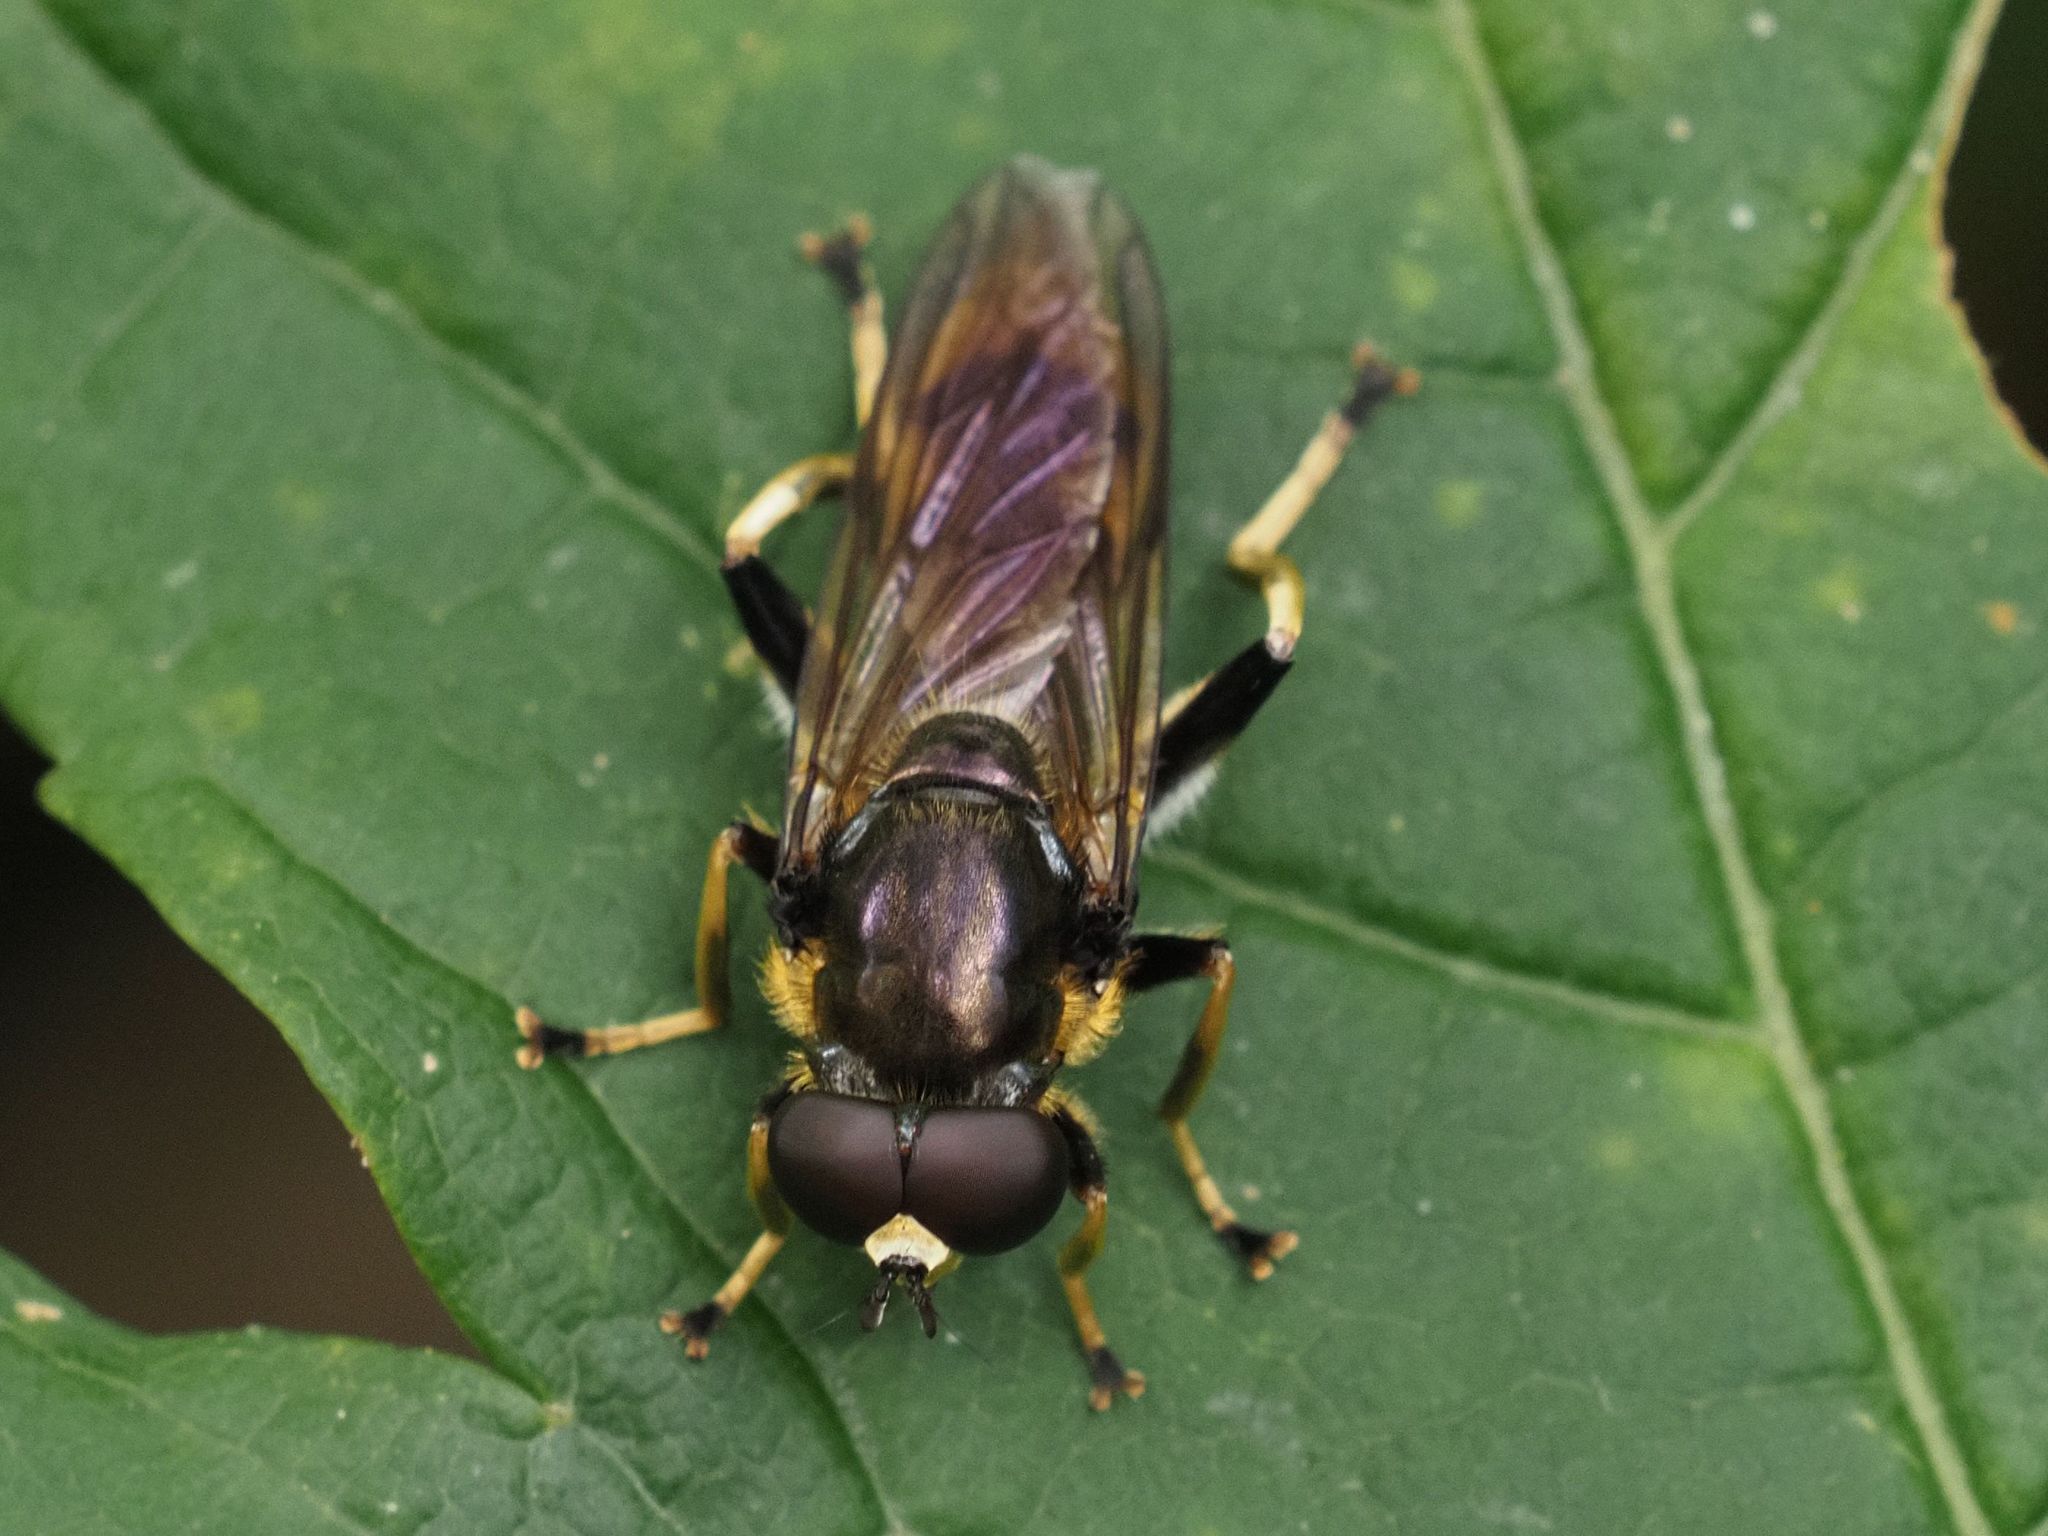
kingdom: Animalia
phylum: Arthropoda
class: Insecta
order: Diptera
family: Syrphidae
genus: Xylota
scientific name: Xylota sylvarum
